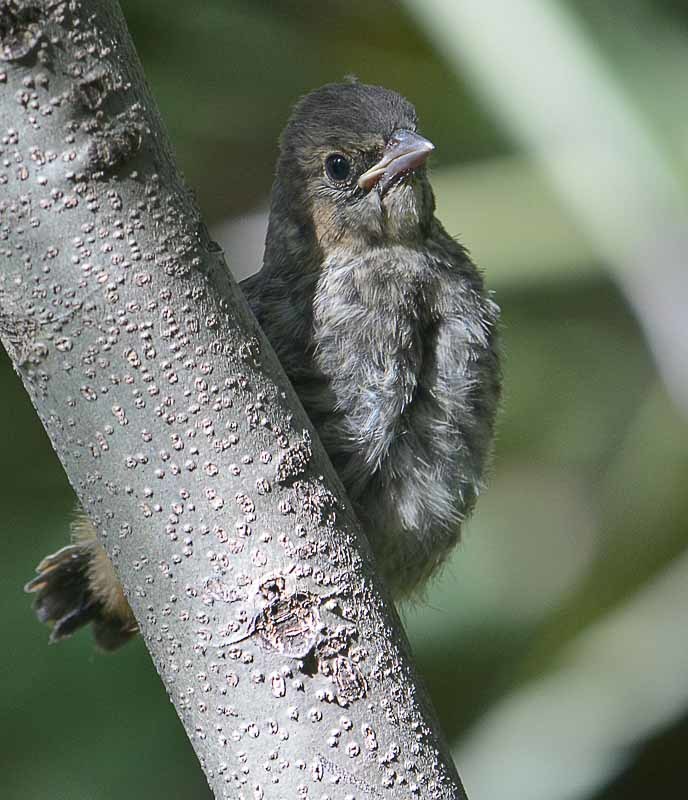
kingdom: Animalia
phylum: Chordata
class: Aves
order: Passeriformes
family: Passerellidae
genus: Melozone
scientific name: Melozone fusca
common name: Canyon towhee
